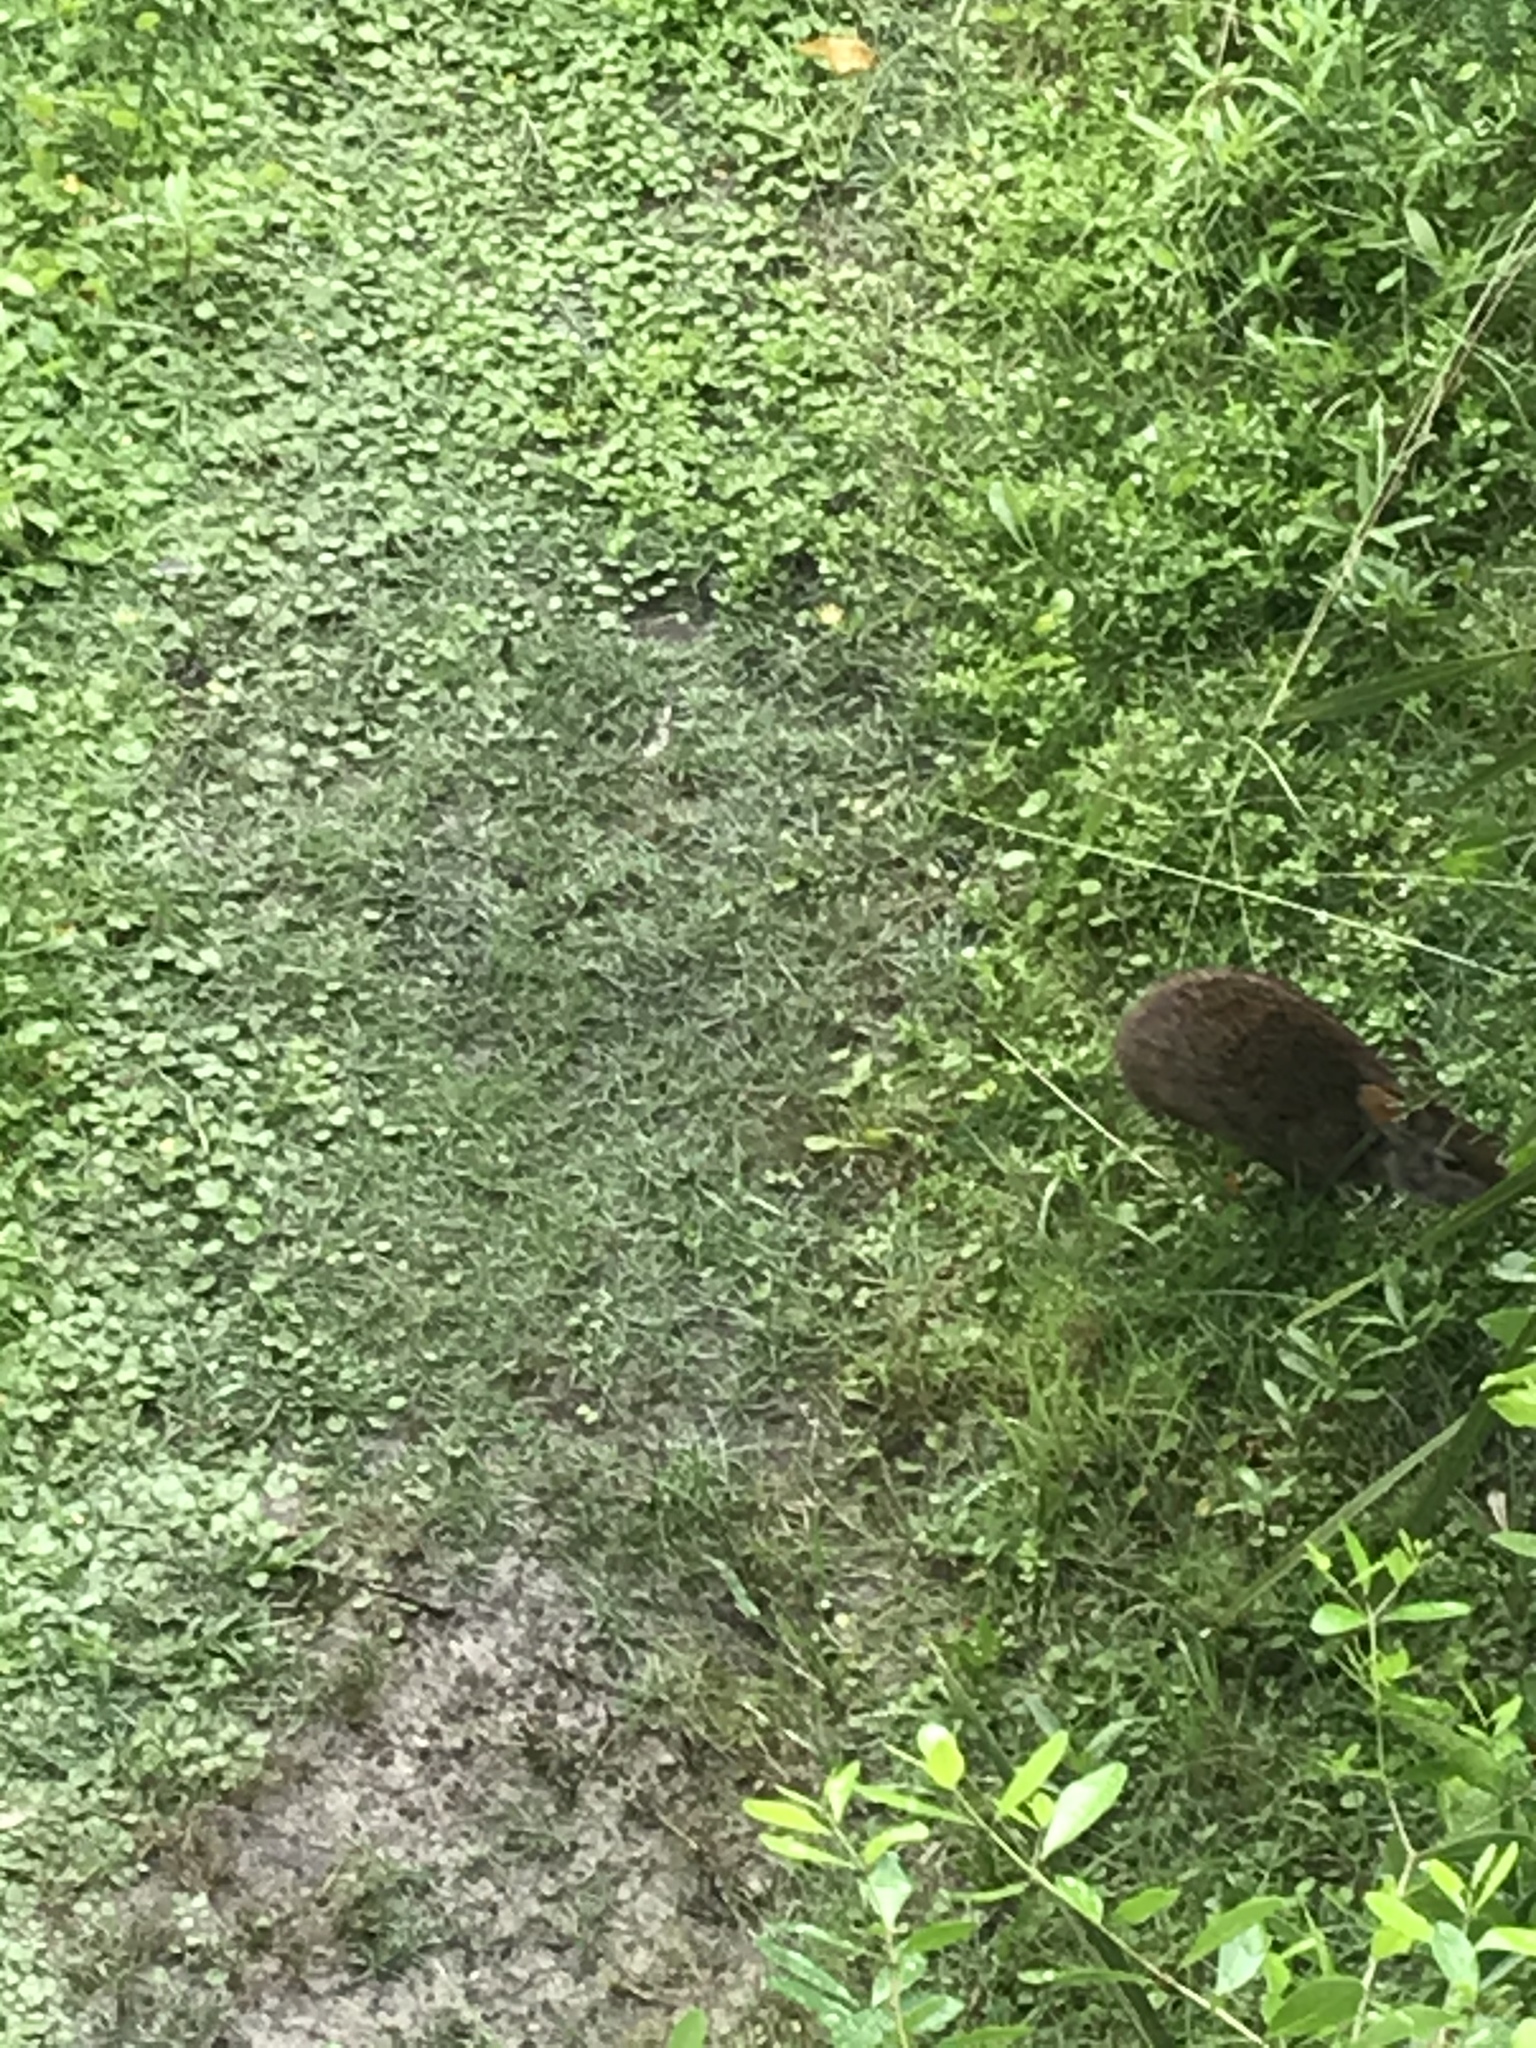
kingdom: Animalia
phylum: Chordata
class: Mammalia
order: Lagomorpha
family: Leporidae
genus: Sylvilagus
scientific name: Sylvilagus palustris
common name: Marsh rabbit
